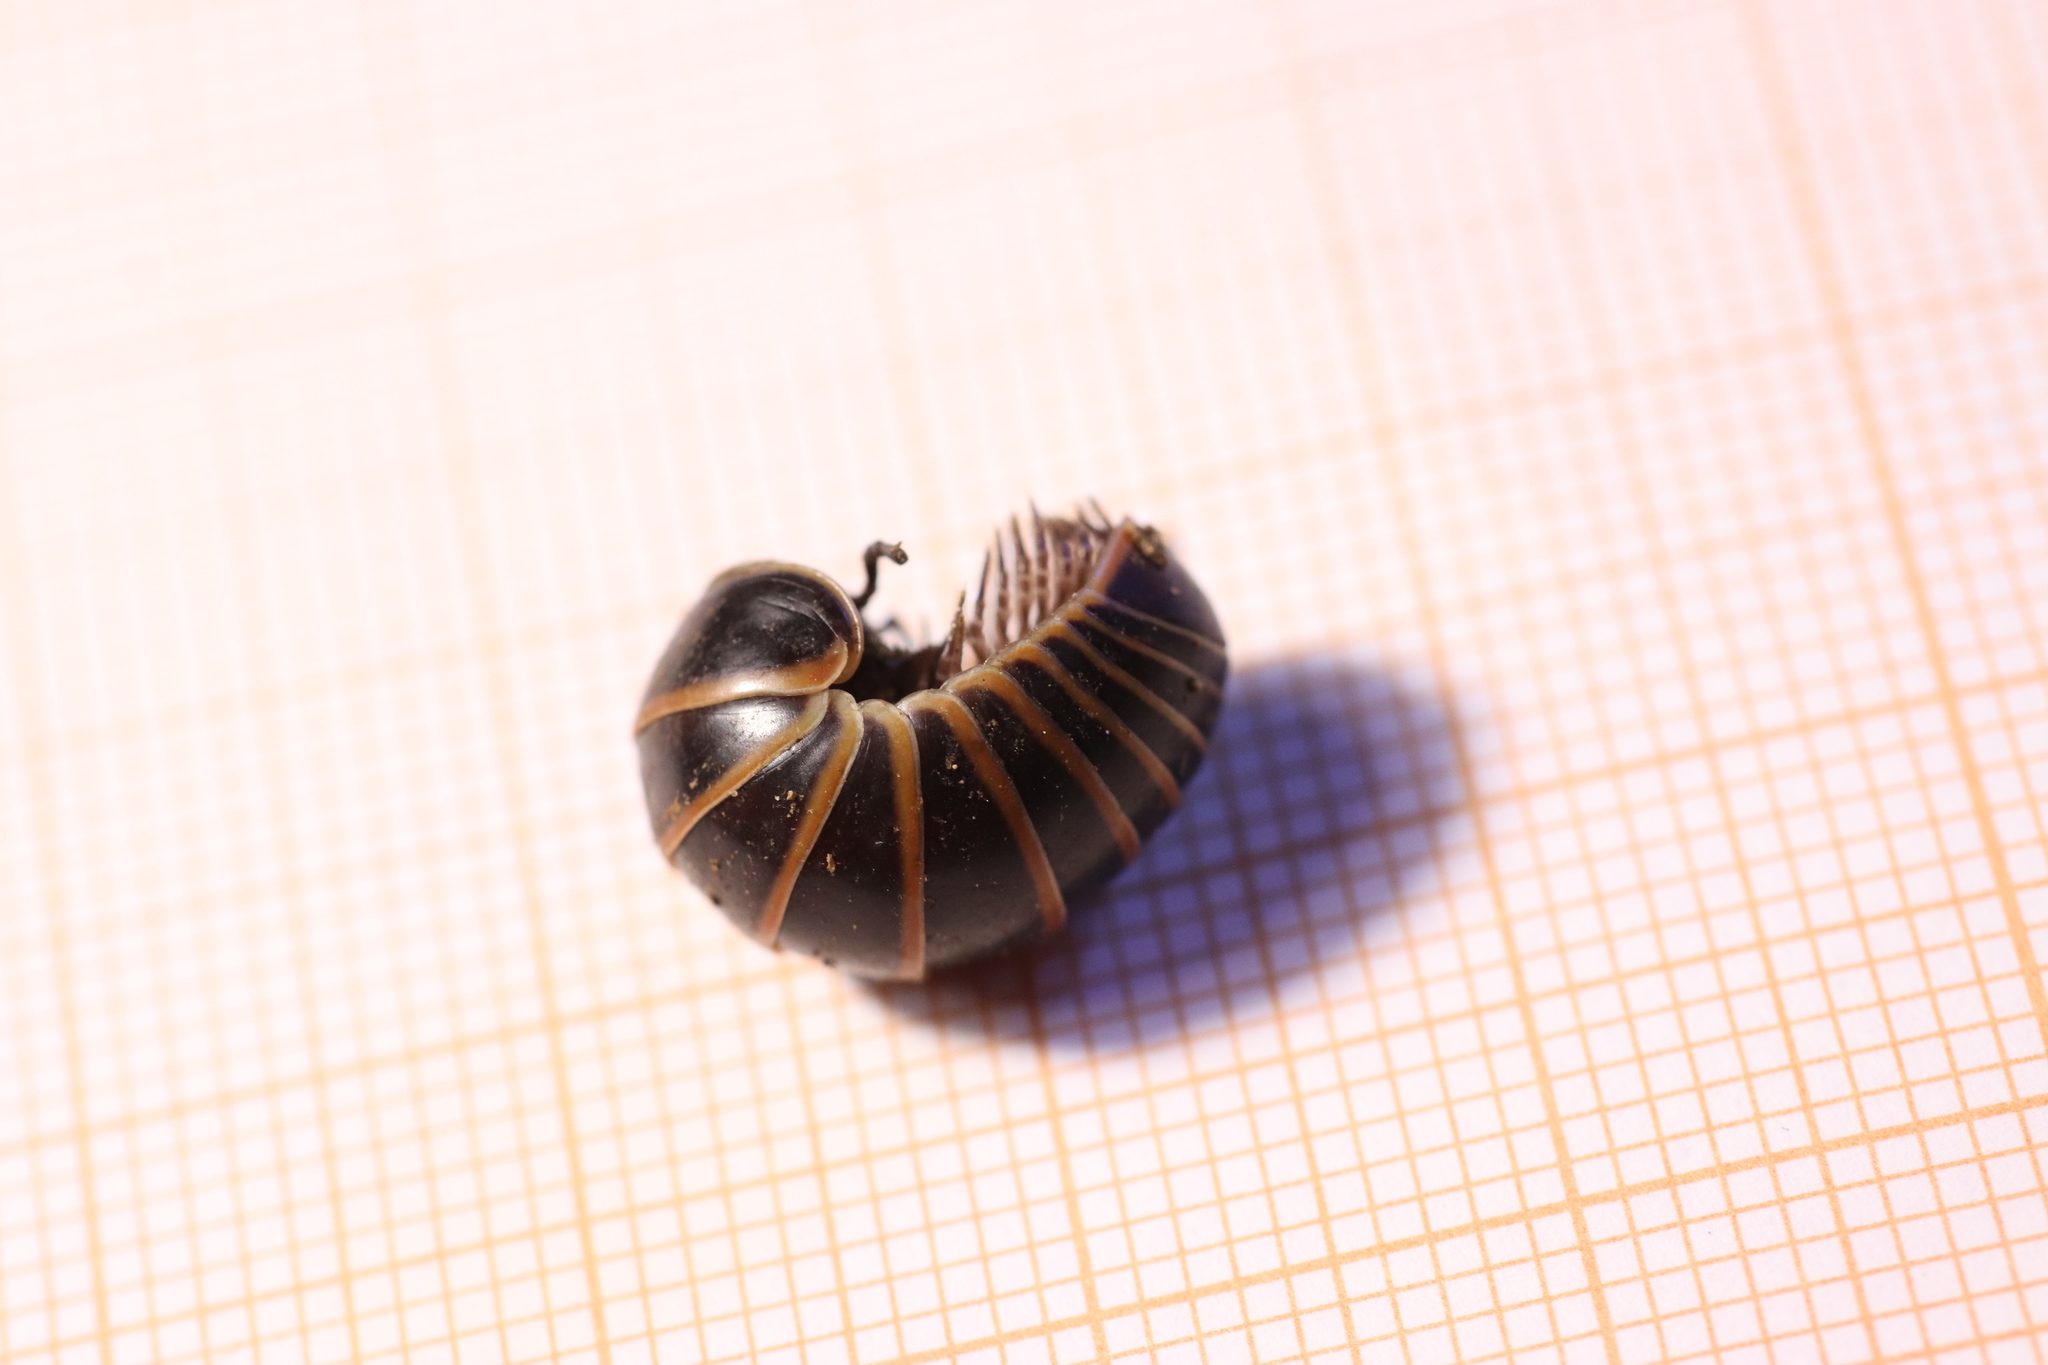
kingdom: Animalia
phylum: Arthropoda
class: Diplopoda
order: Glomerida
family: Glomeridae
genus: Glomeris
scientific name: Glomeris marginata
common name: Bordered pill millipede
